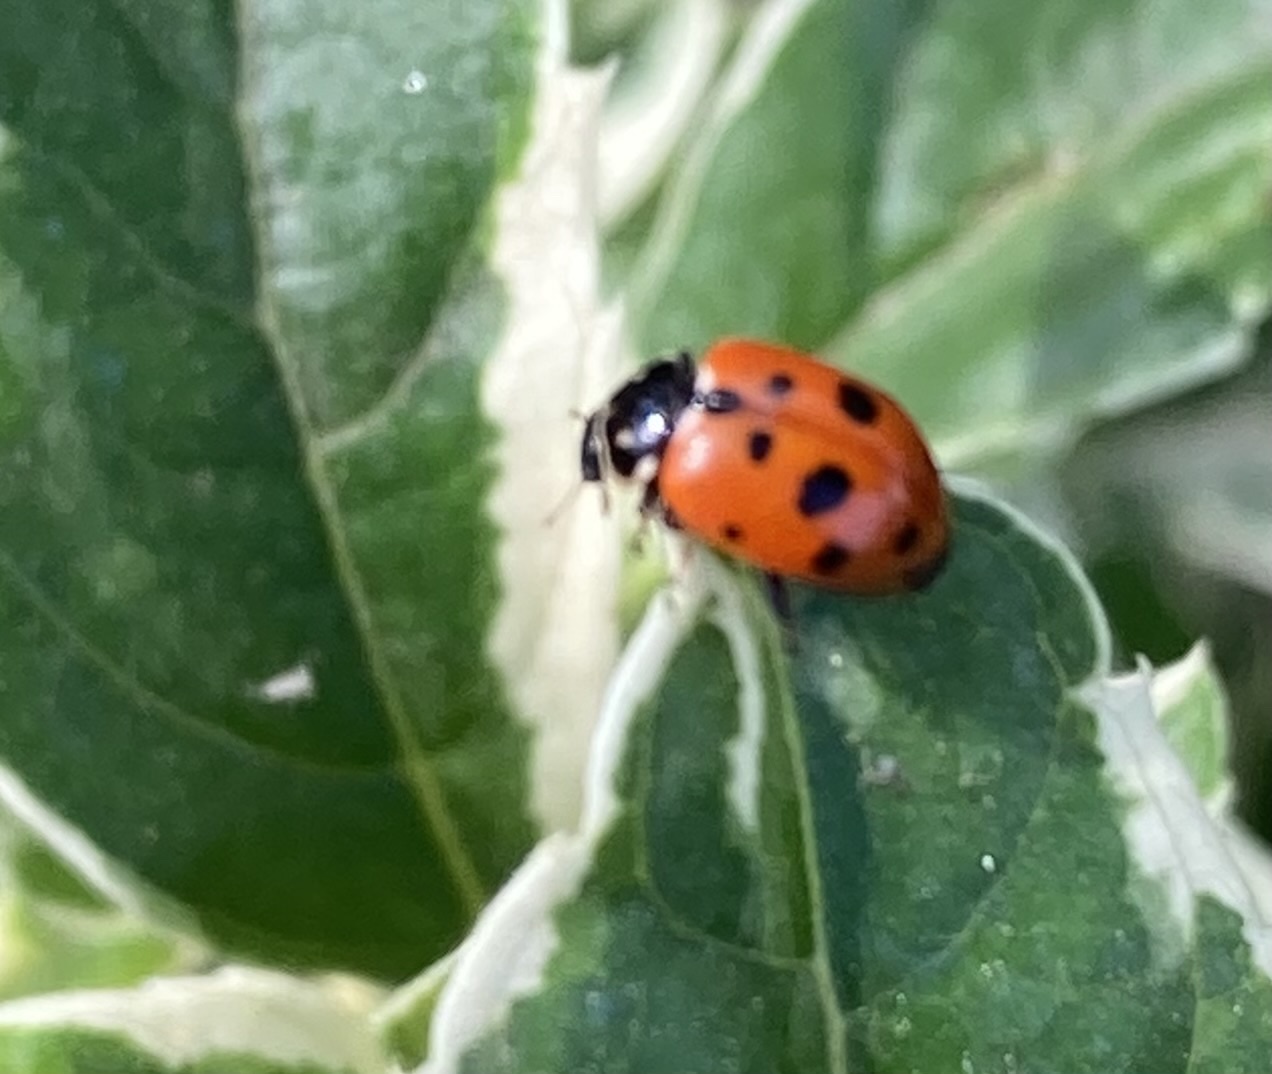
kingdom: Animalia
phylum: Arthropoda
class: Insecta
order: Coleoptera
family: Coccinellidae
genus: Hippodamia
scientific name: Hippodamia variegata
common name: Ladybird beetle
